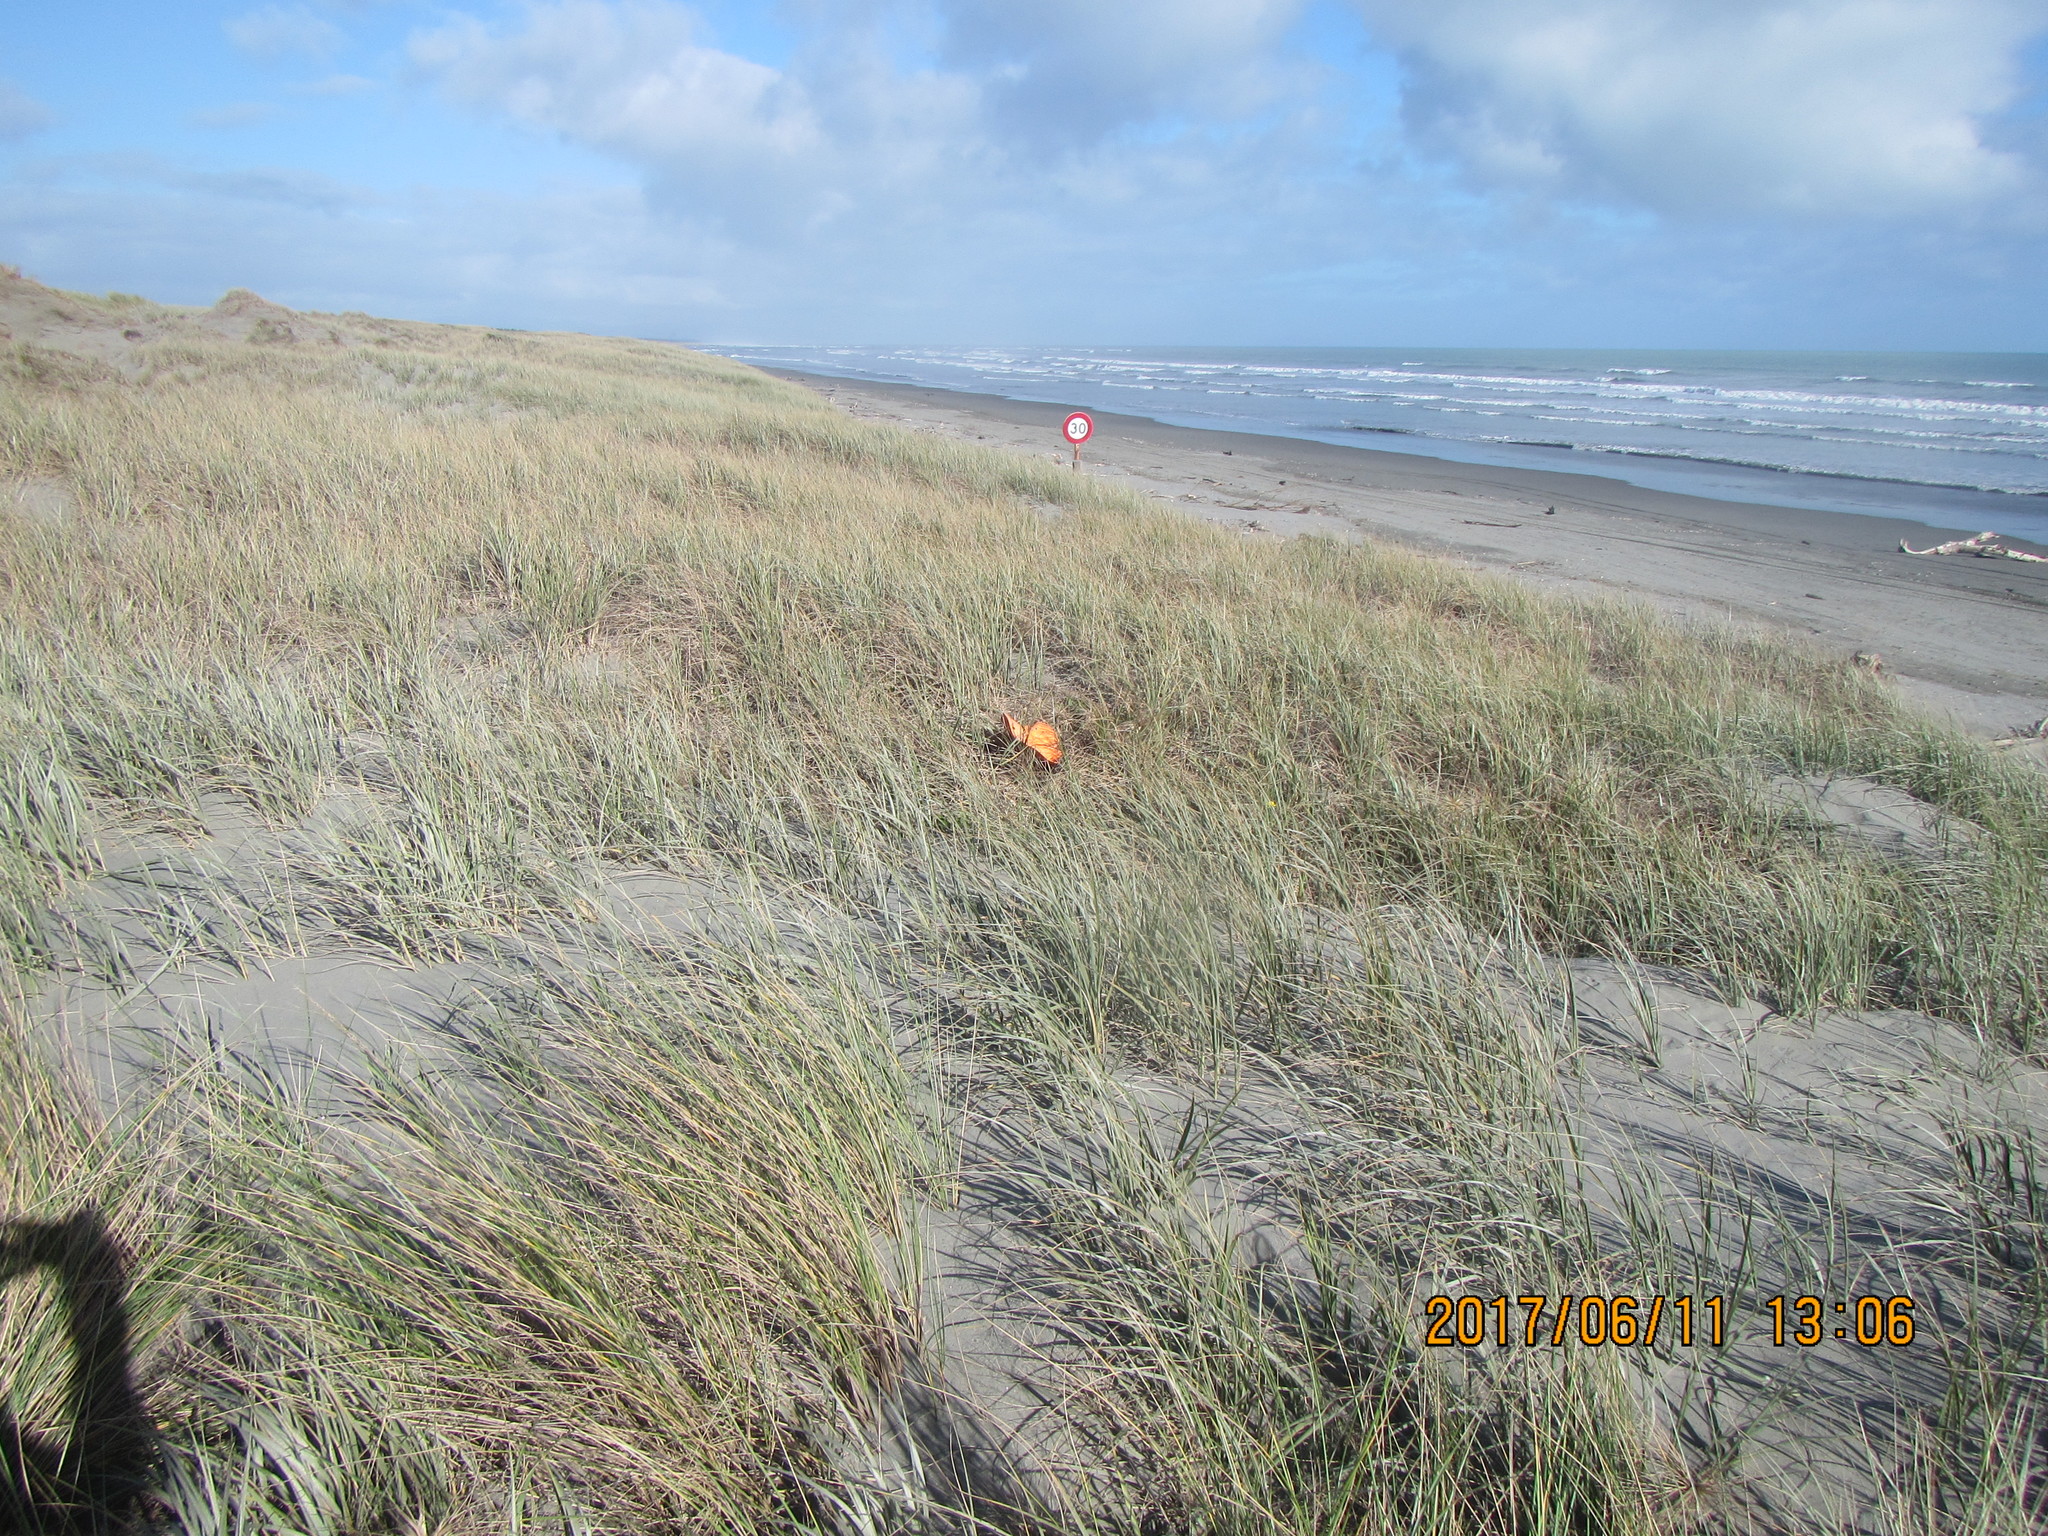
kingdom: Animalia
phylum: Arthropoda
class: Arachnida
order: Araneae
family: Theridiidae
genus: Steatoda
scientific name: Steatoda capensis
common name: Cobweb weaver
